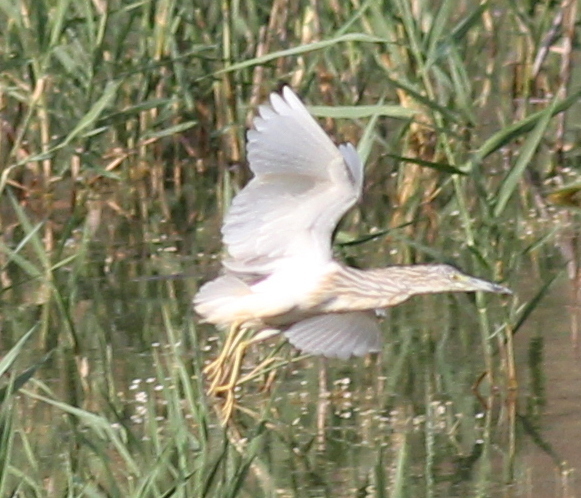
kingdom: Animalia
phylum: Chordata
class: Aves
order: Pelecaniformes
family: Ardeidae
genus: Ardeola
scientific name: Ardeola ralloides
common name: Squacco heron
